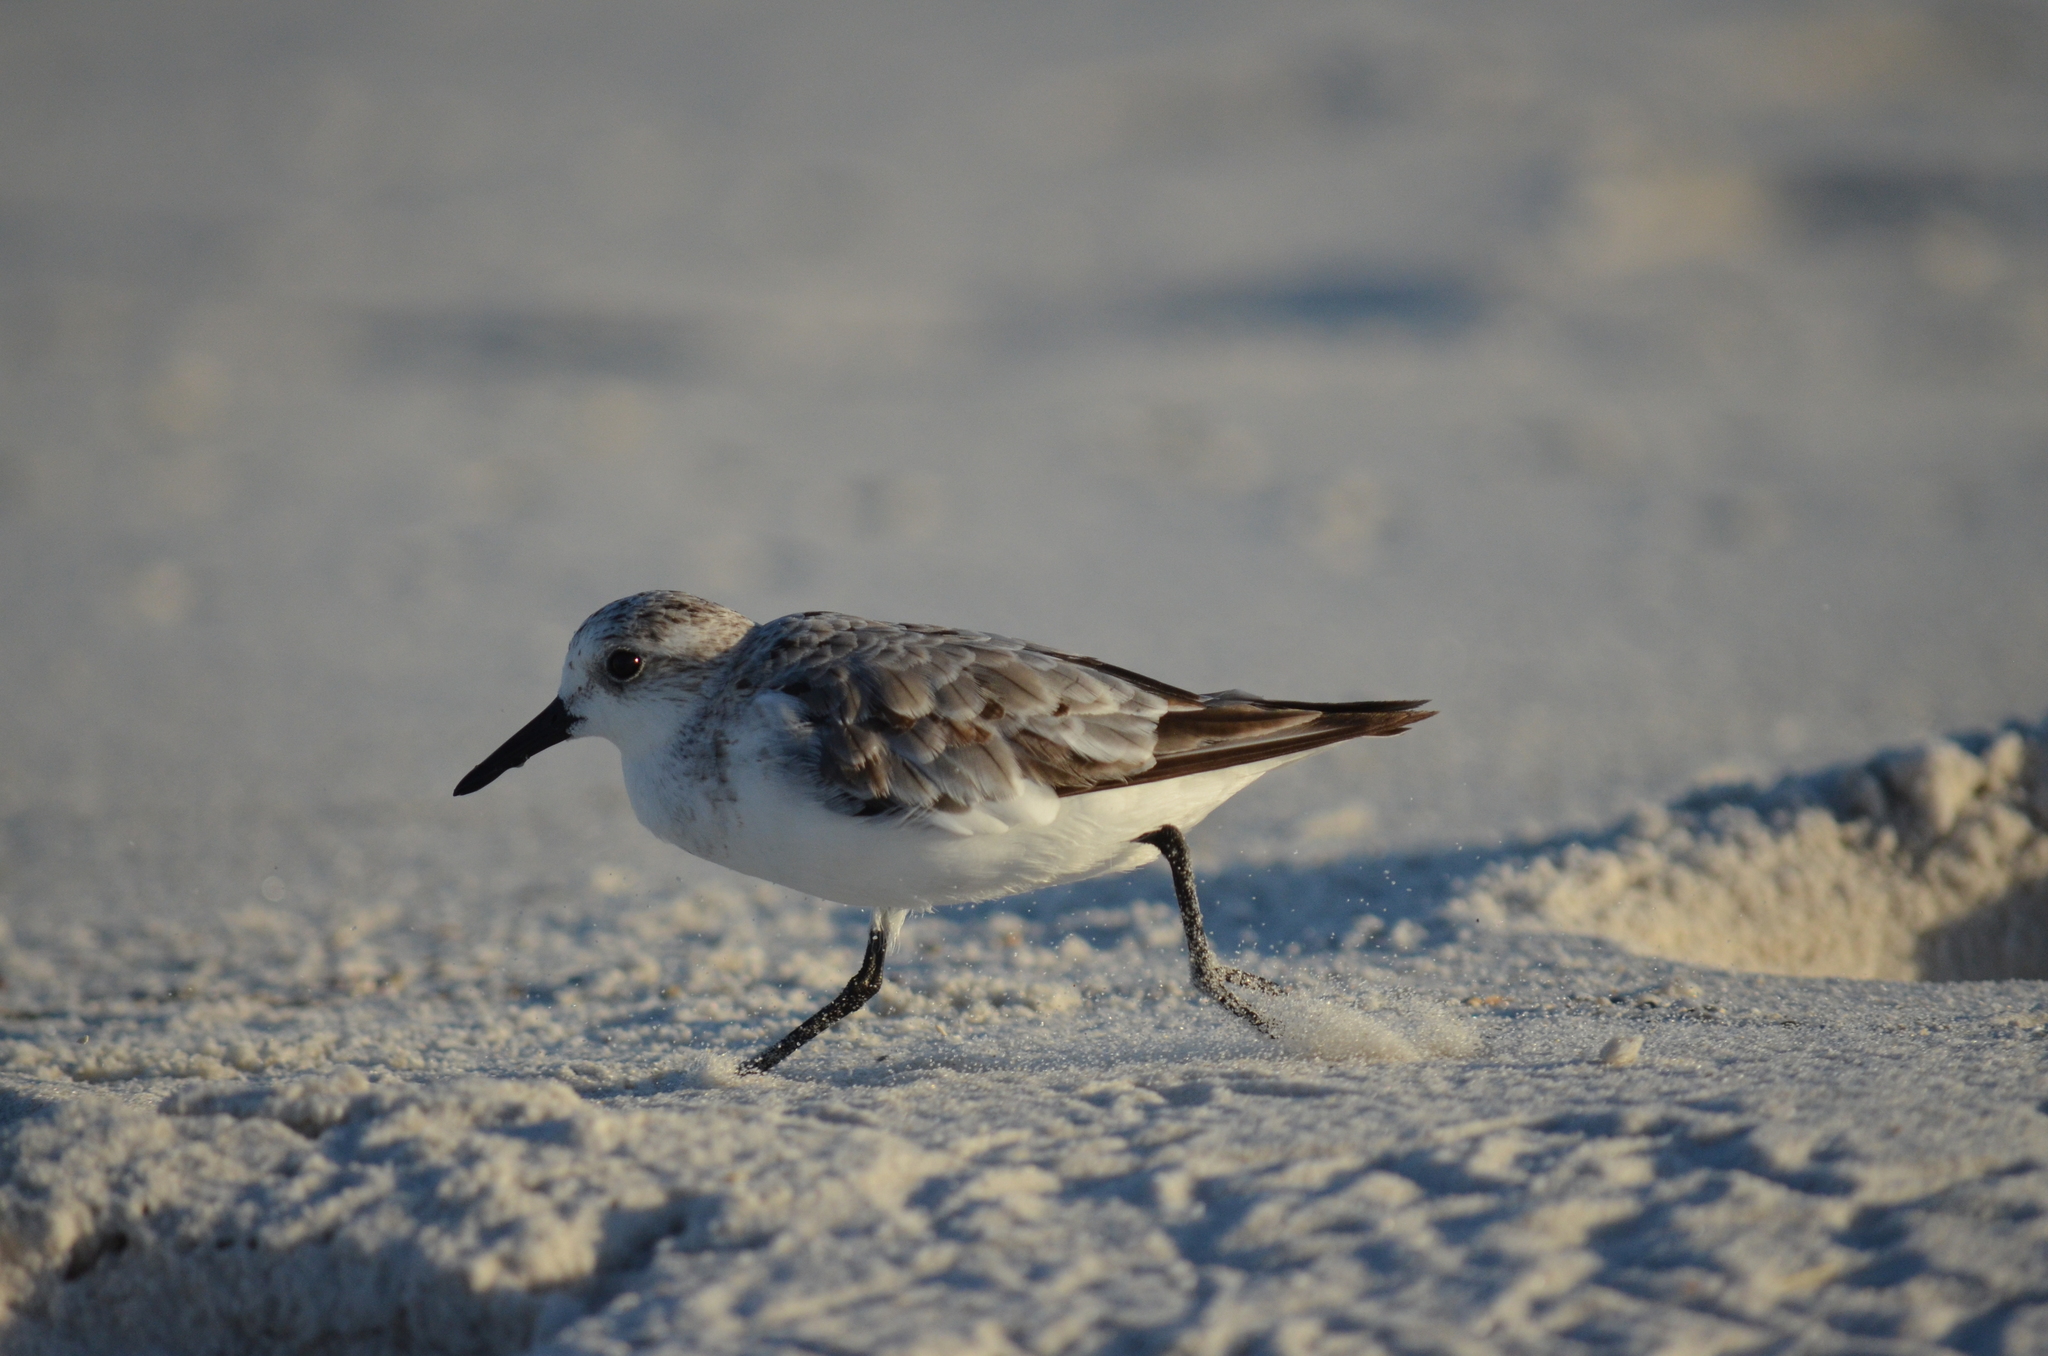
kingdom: Animalia
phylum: Chordata
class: Aves
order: Charadriiformes
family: Scolopacidae
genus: Calidris
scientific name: Calidris alba
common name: Sanderling
